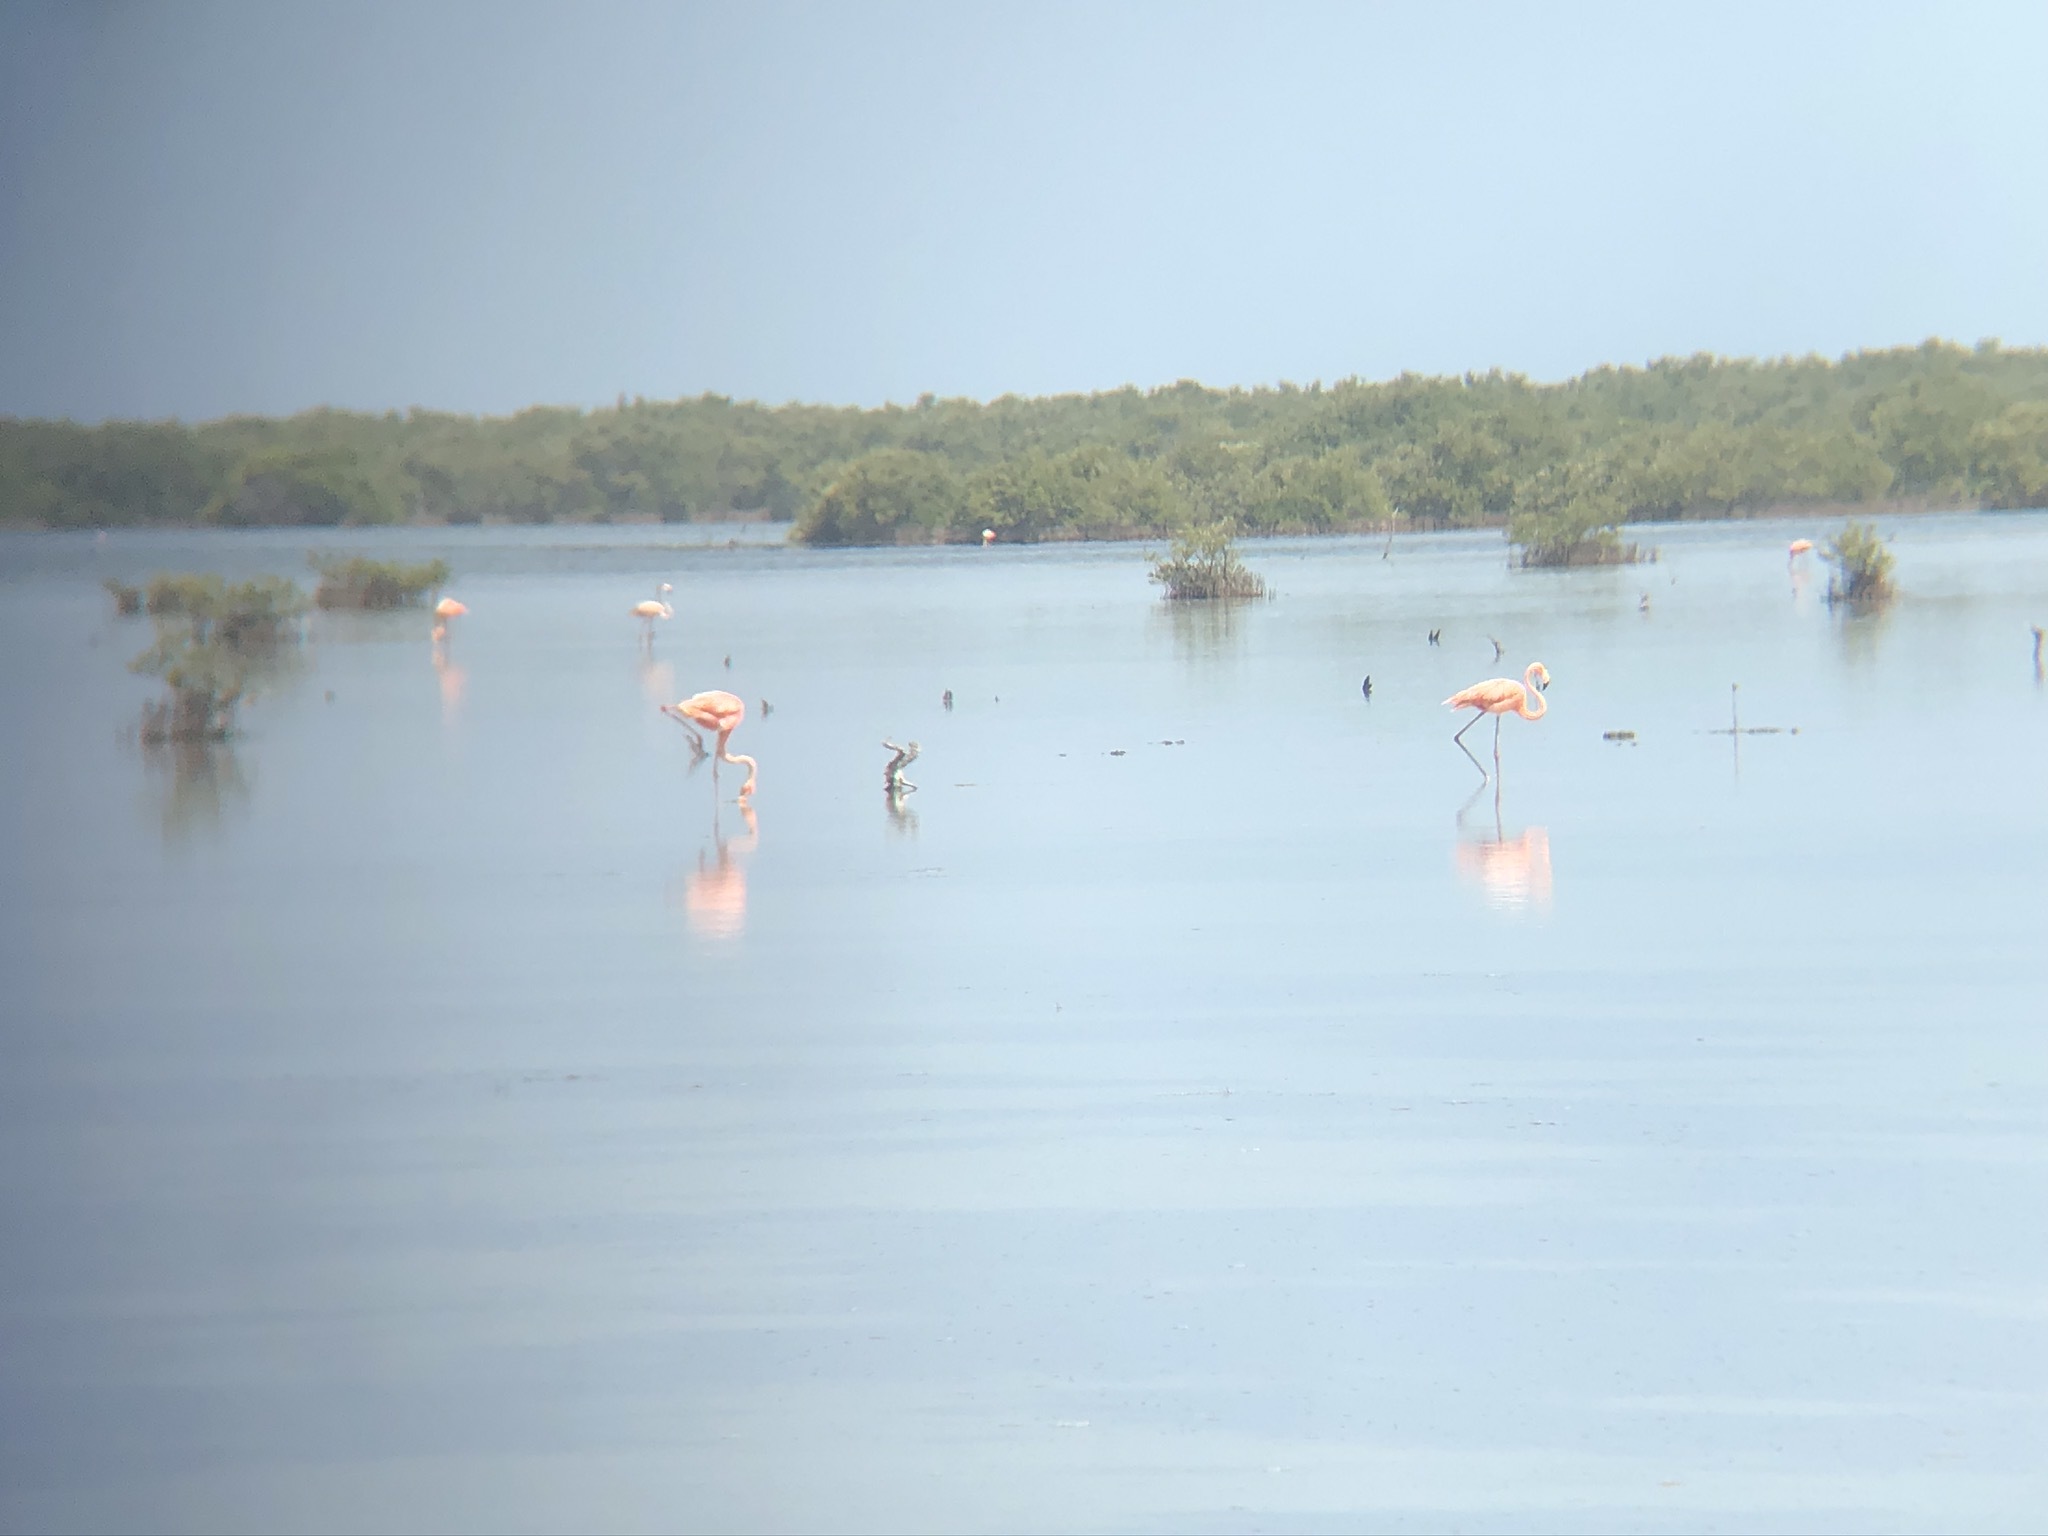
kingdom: Animalia
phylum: Chordata
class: Aves
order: Phoenicopteriformes
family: Phoenicopteridae
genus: Phoenicopterus
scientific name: Phoenicopterus ruber
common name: American flamingo
